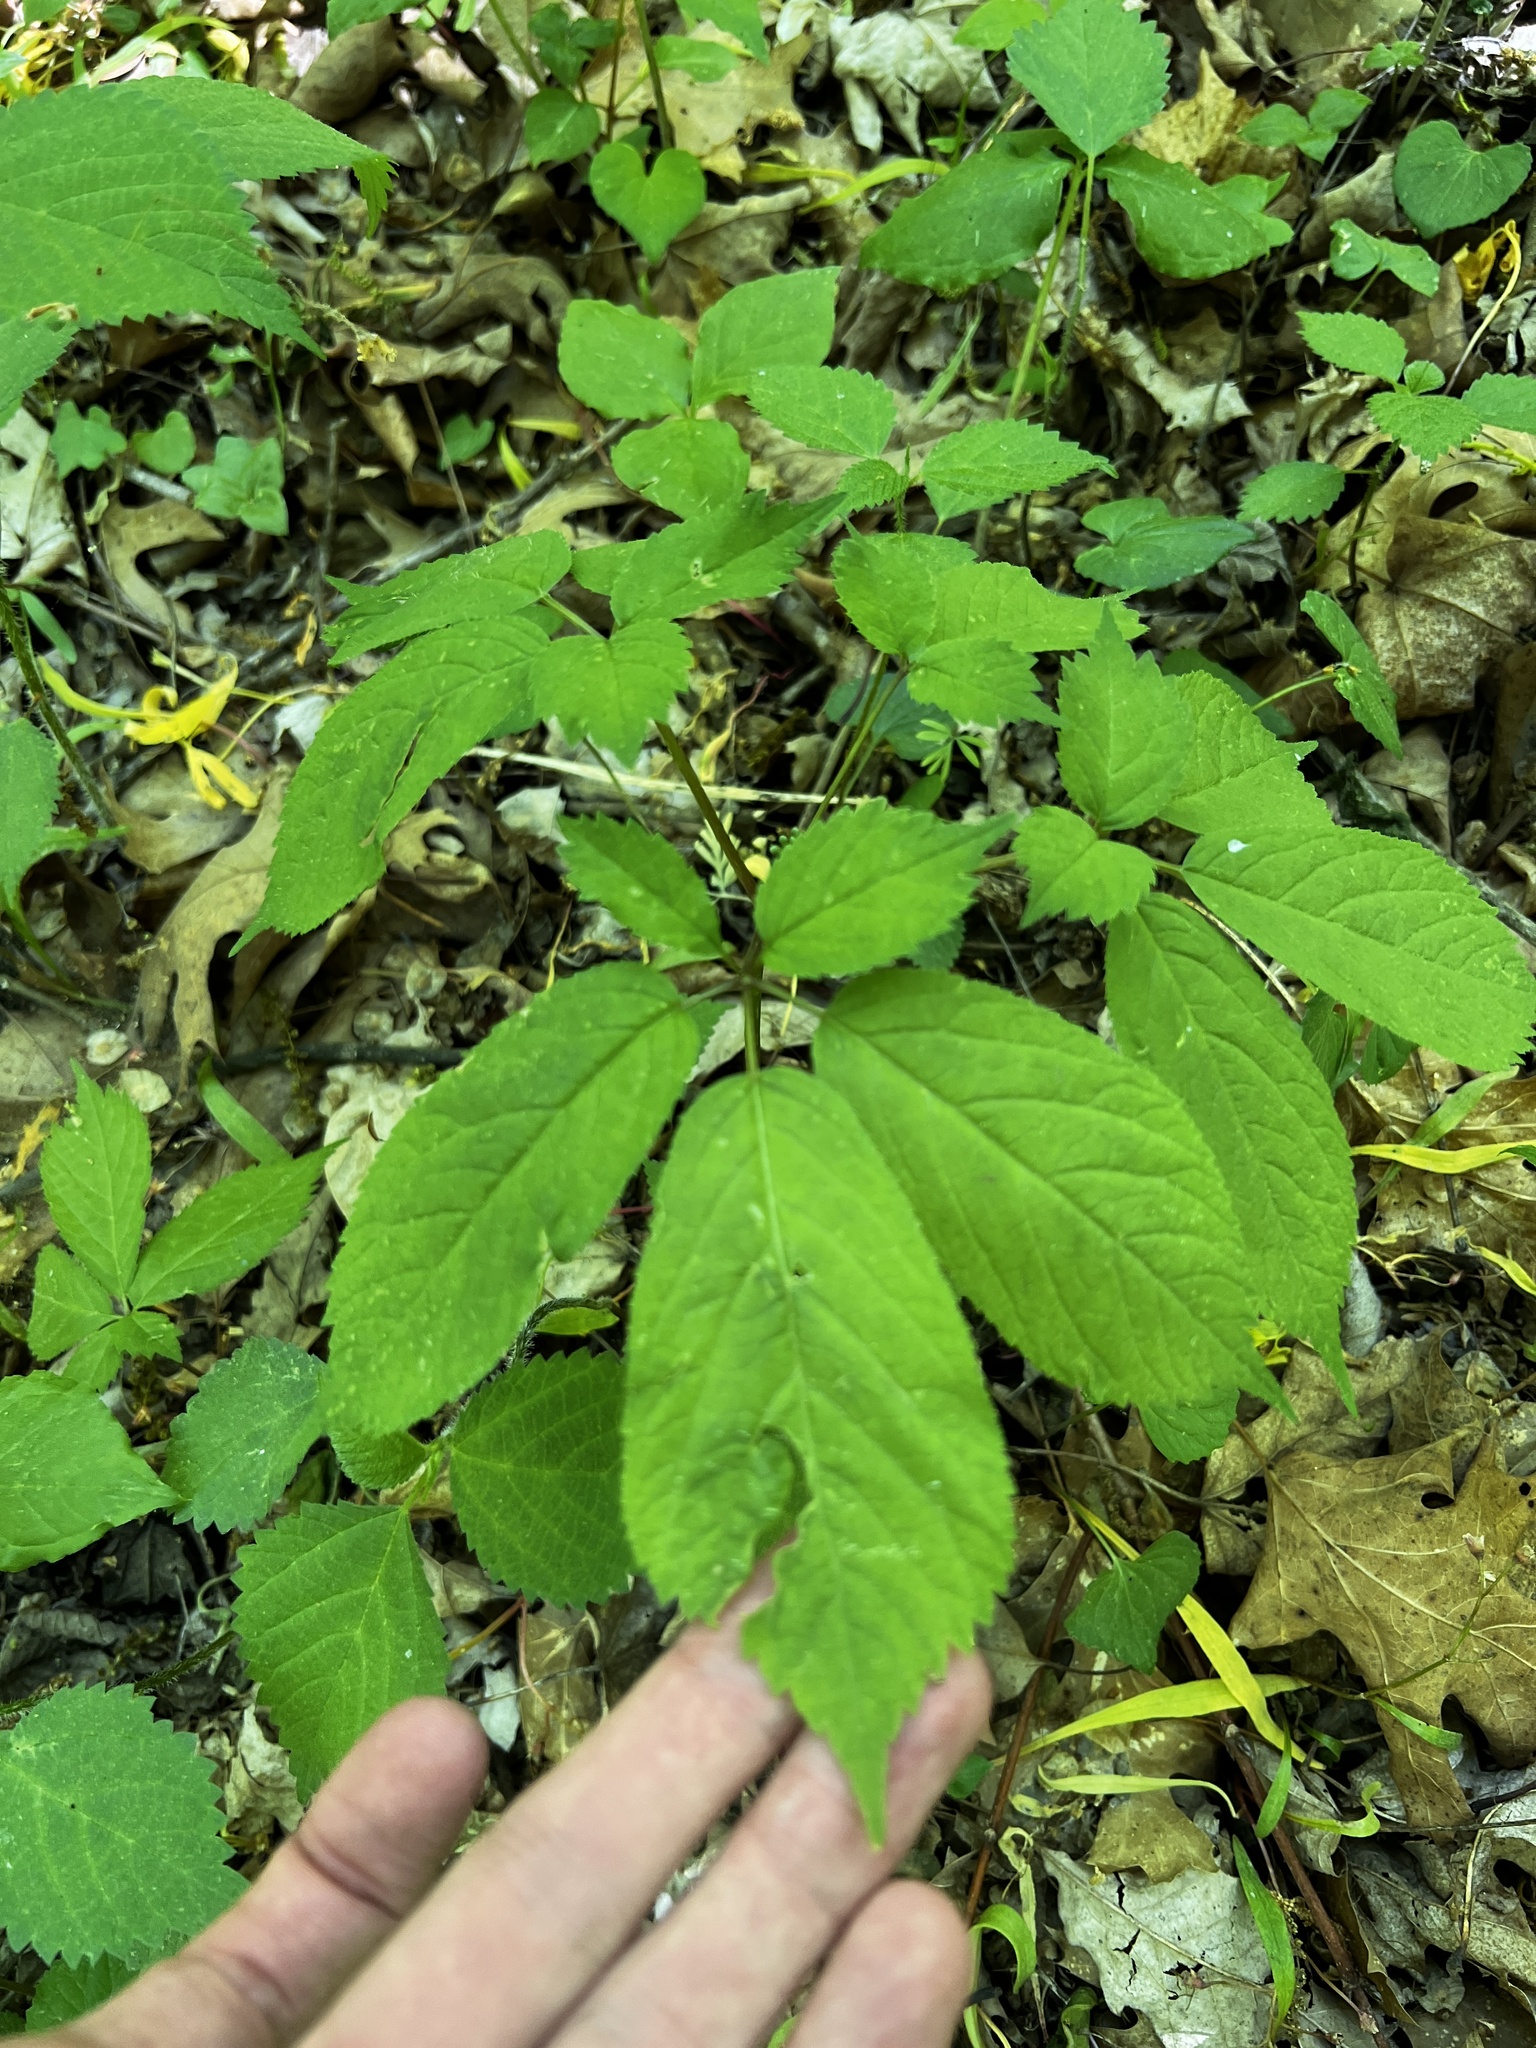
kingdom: Plantae
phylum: Tracheophyta
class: Magnoliopsida
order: Apiales
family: Araliaceae
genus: Panax
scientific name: Panax quinquefolius
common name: American ginseng
